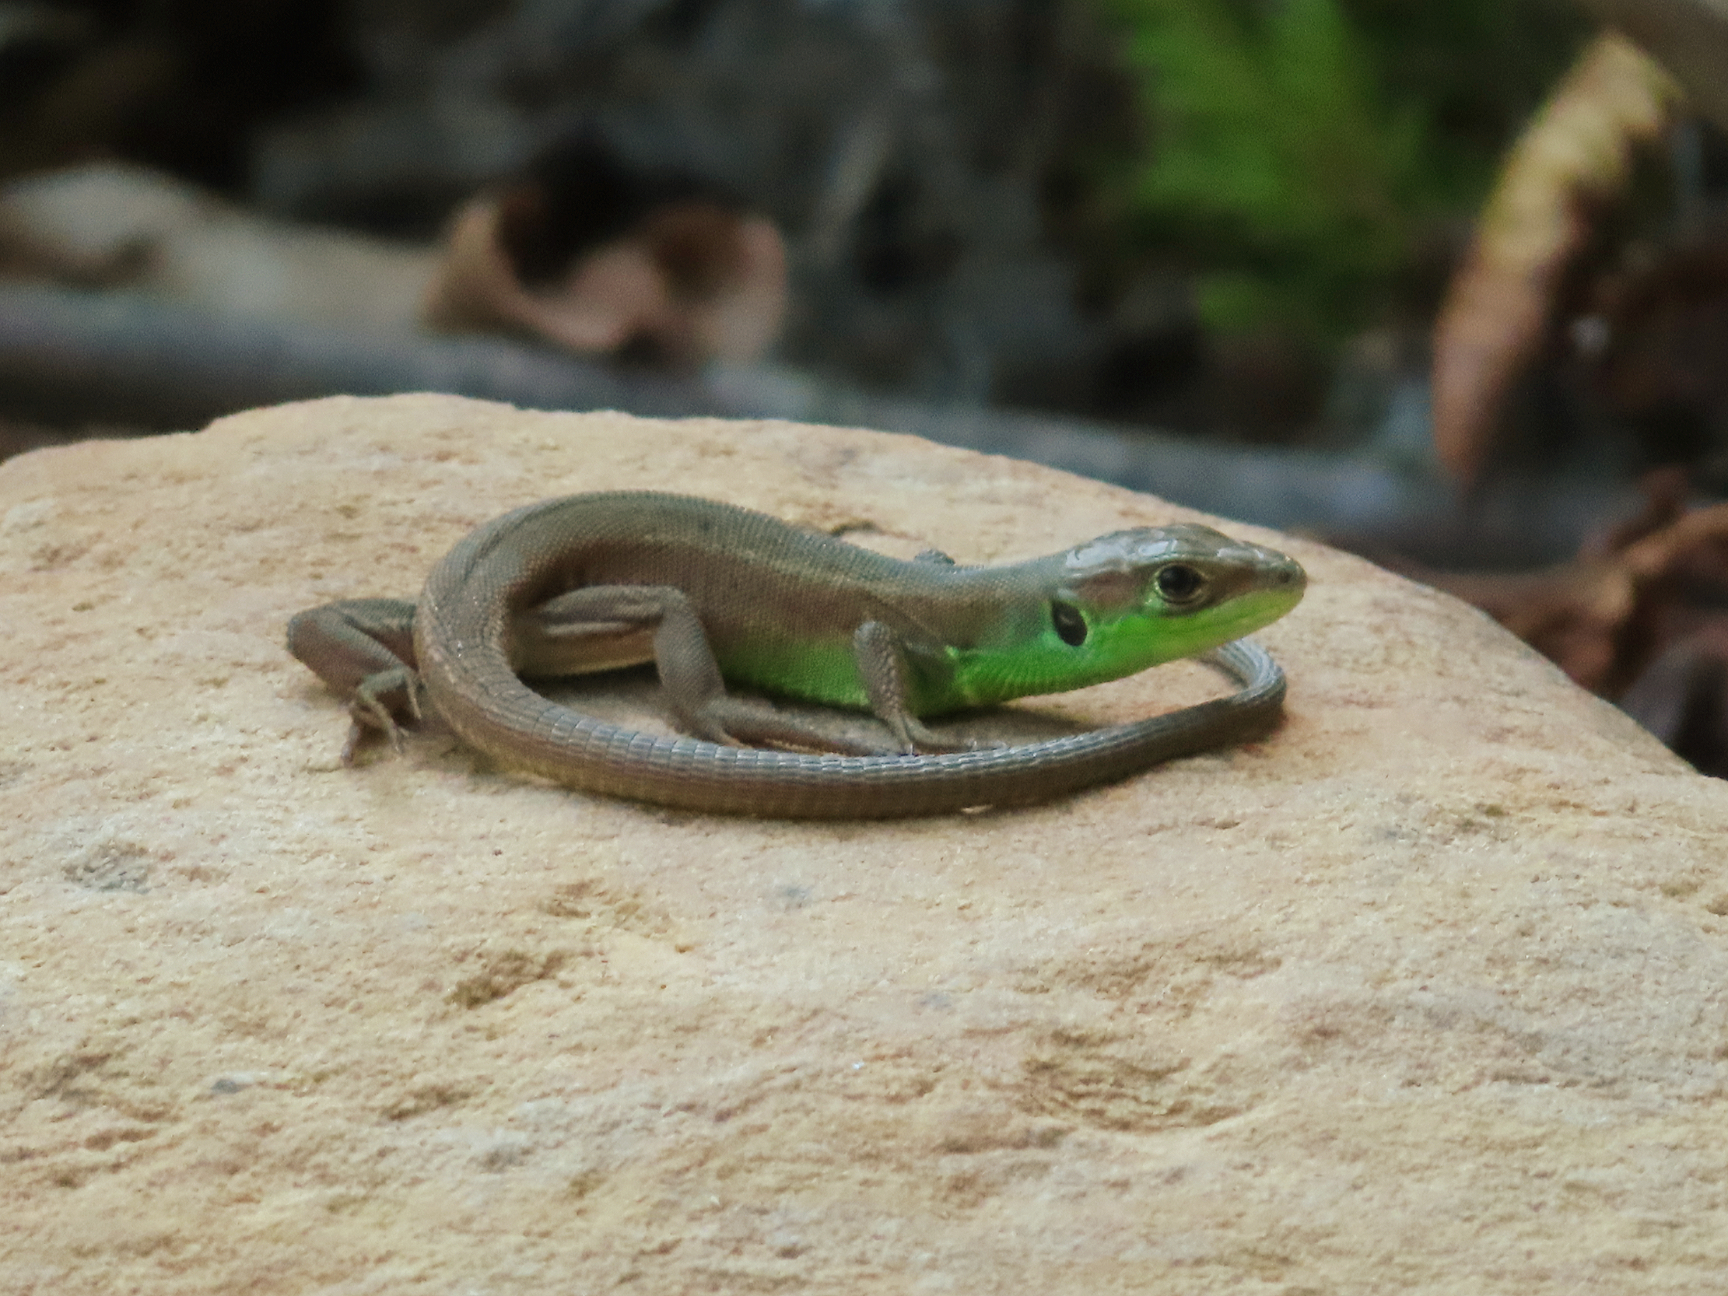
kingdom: Animalia
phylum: Chordata
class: Squamata
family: Lacertidae
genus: Lacerta
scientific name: Lacerta viridis
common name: European green lizard
